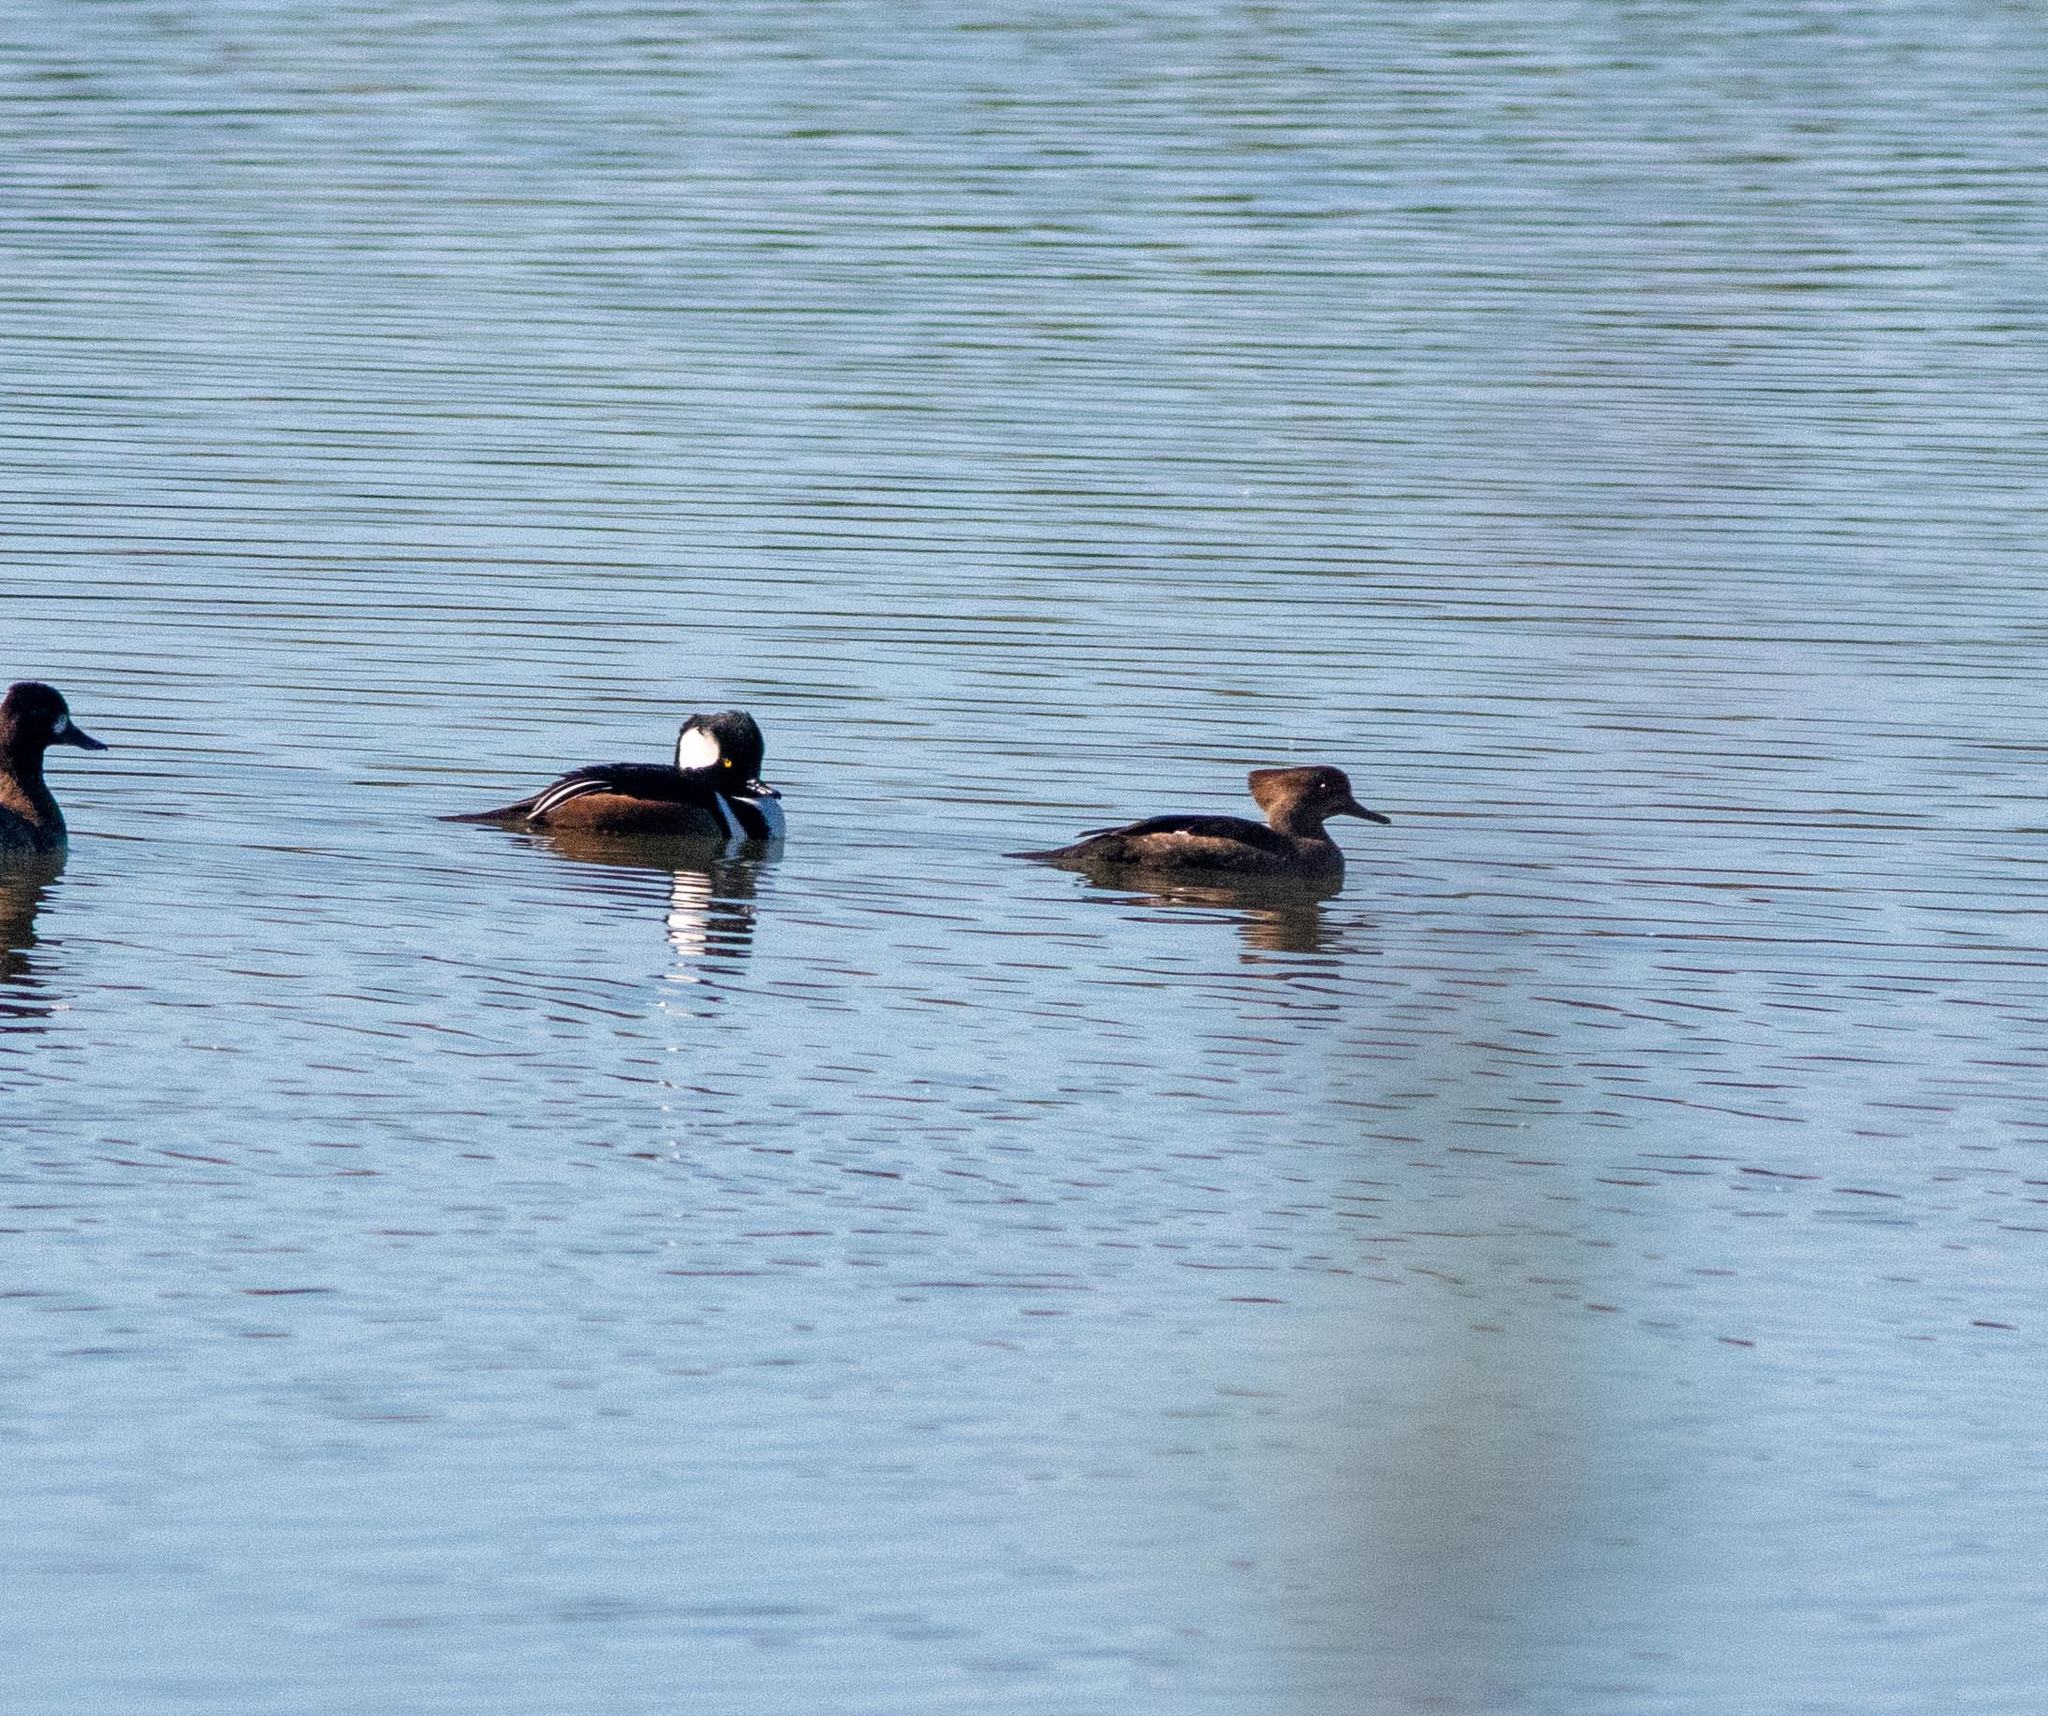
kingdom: Animalia
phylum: Chordata
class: Aves
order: Anseriformes
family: Anatidae
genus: Lophodytes
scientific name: Lophodytes cucullatus
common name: Hooded merganser
